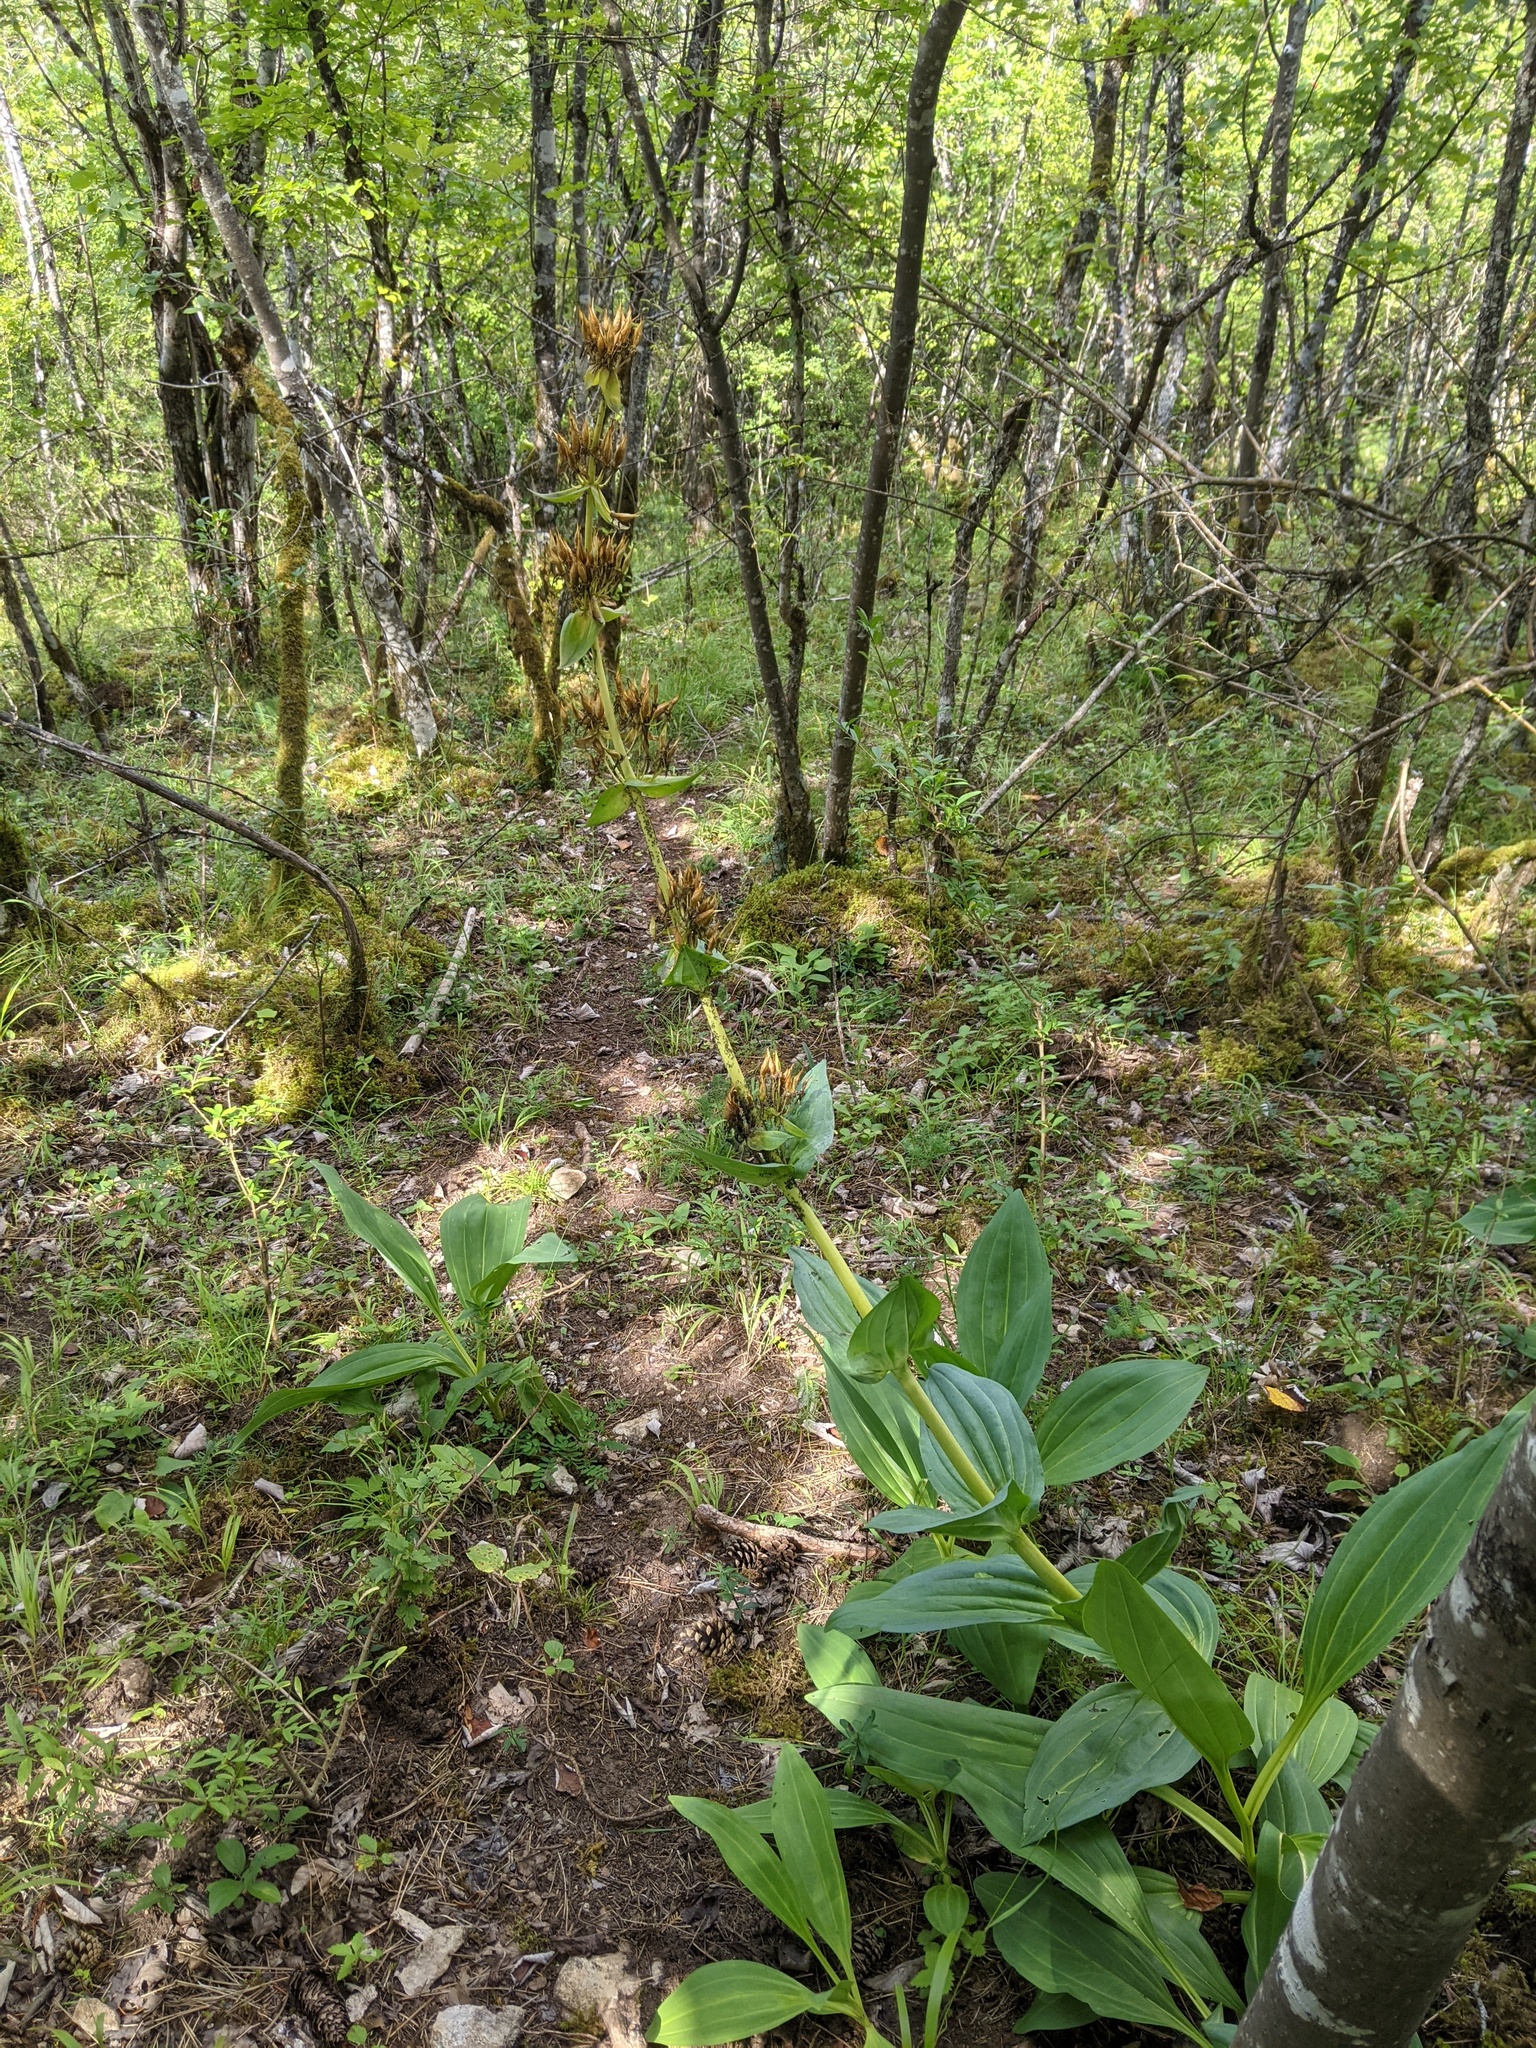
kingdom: Plantae
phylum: Tracheophyta
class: Magnoliopsida
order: Gentianales
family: Gentianaceae
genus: Gentiana
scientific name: Gentiana lutea
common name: Great yellow gentian
